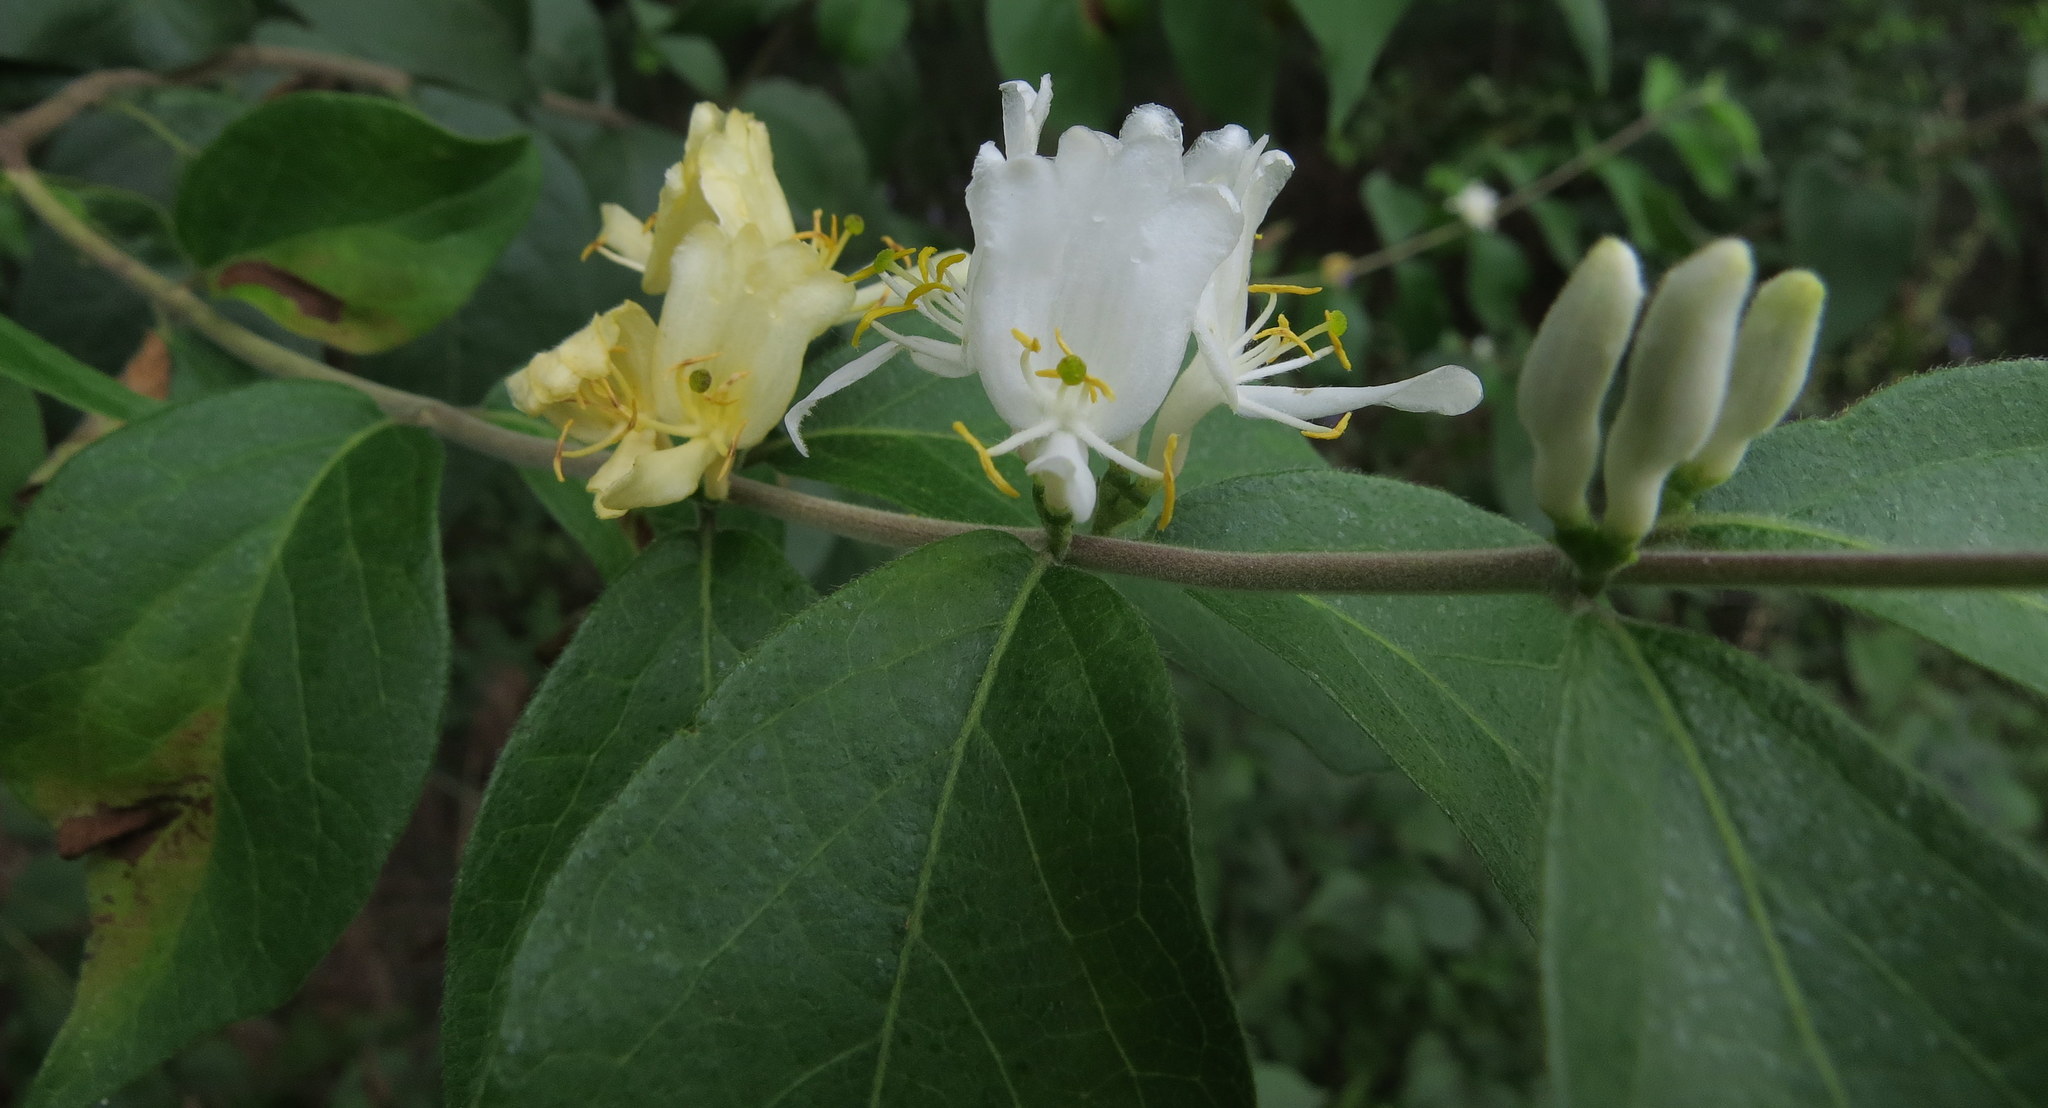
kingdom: Plantae
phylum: Tracheophyta
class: Magnoliopsida
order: Dipsacales
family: Caprifoliaceae
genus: Lonicera
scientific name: Lonicera maackii
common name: Amur honeysuckle
